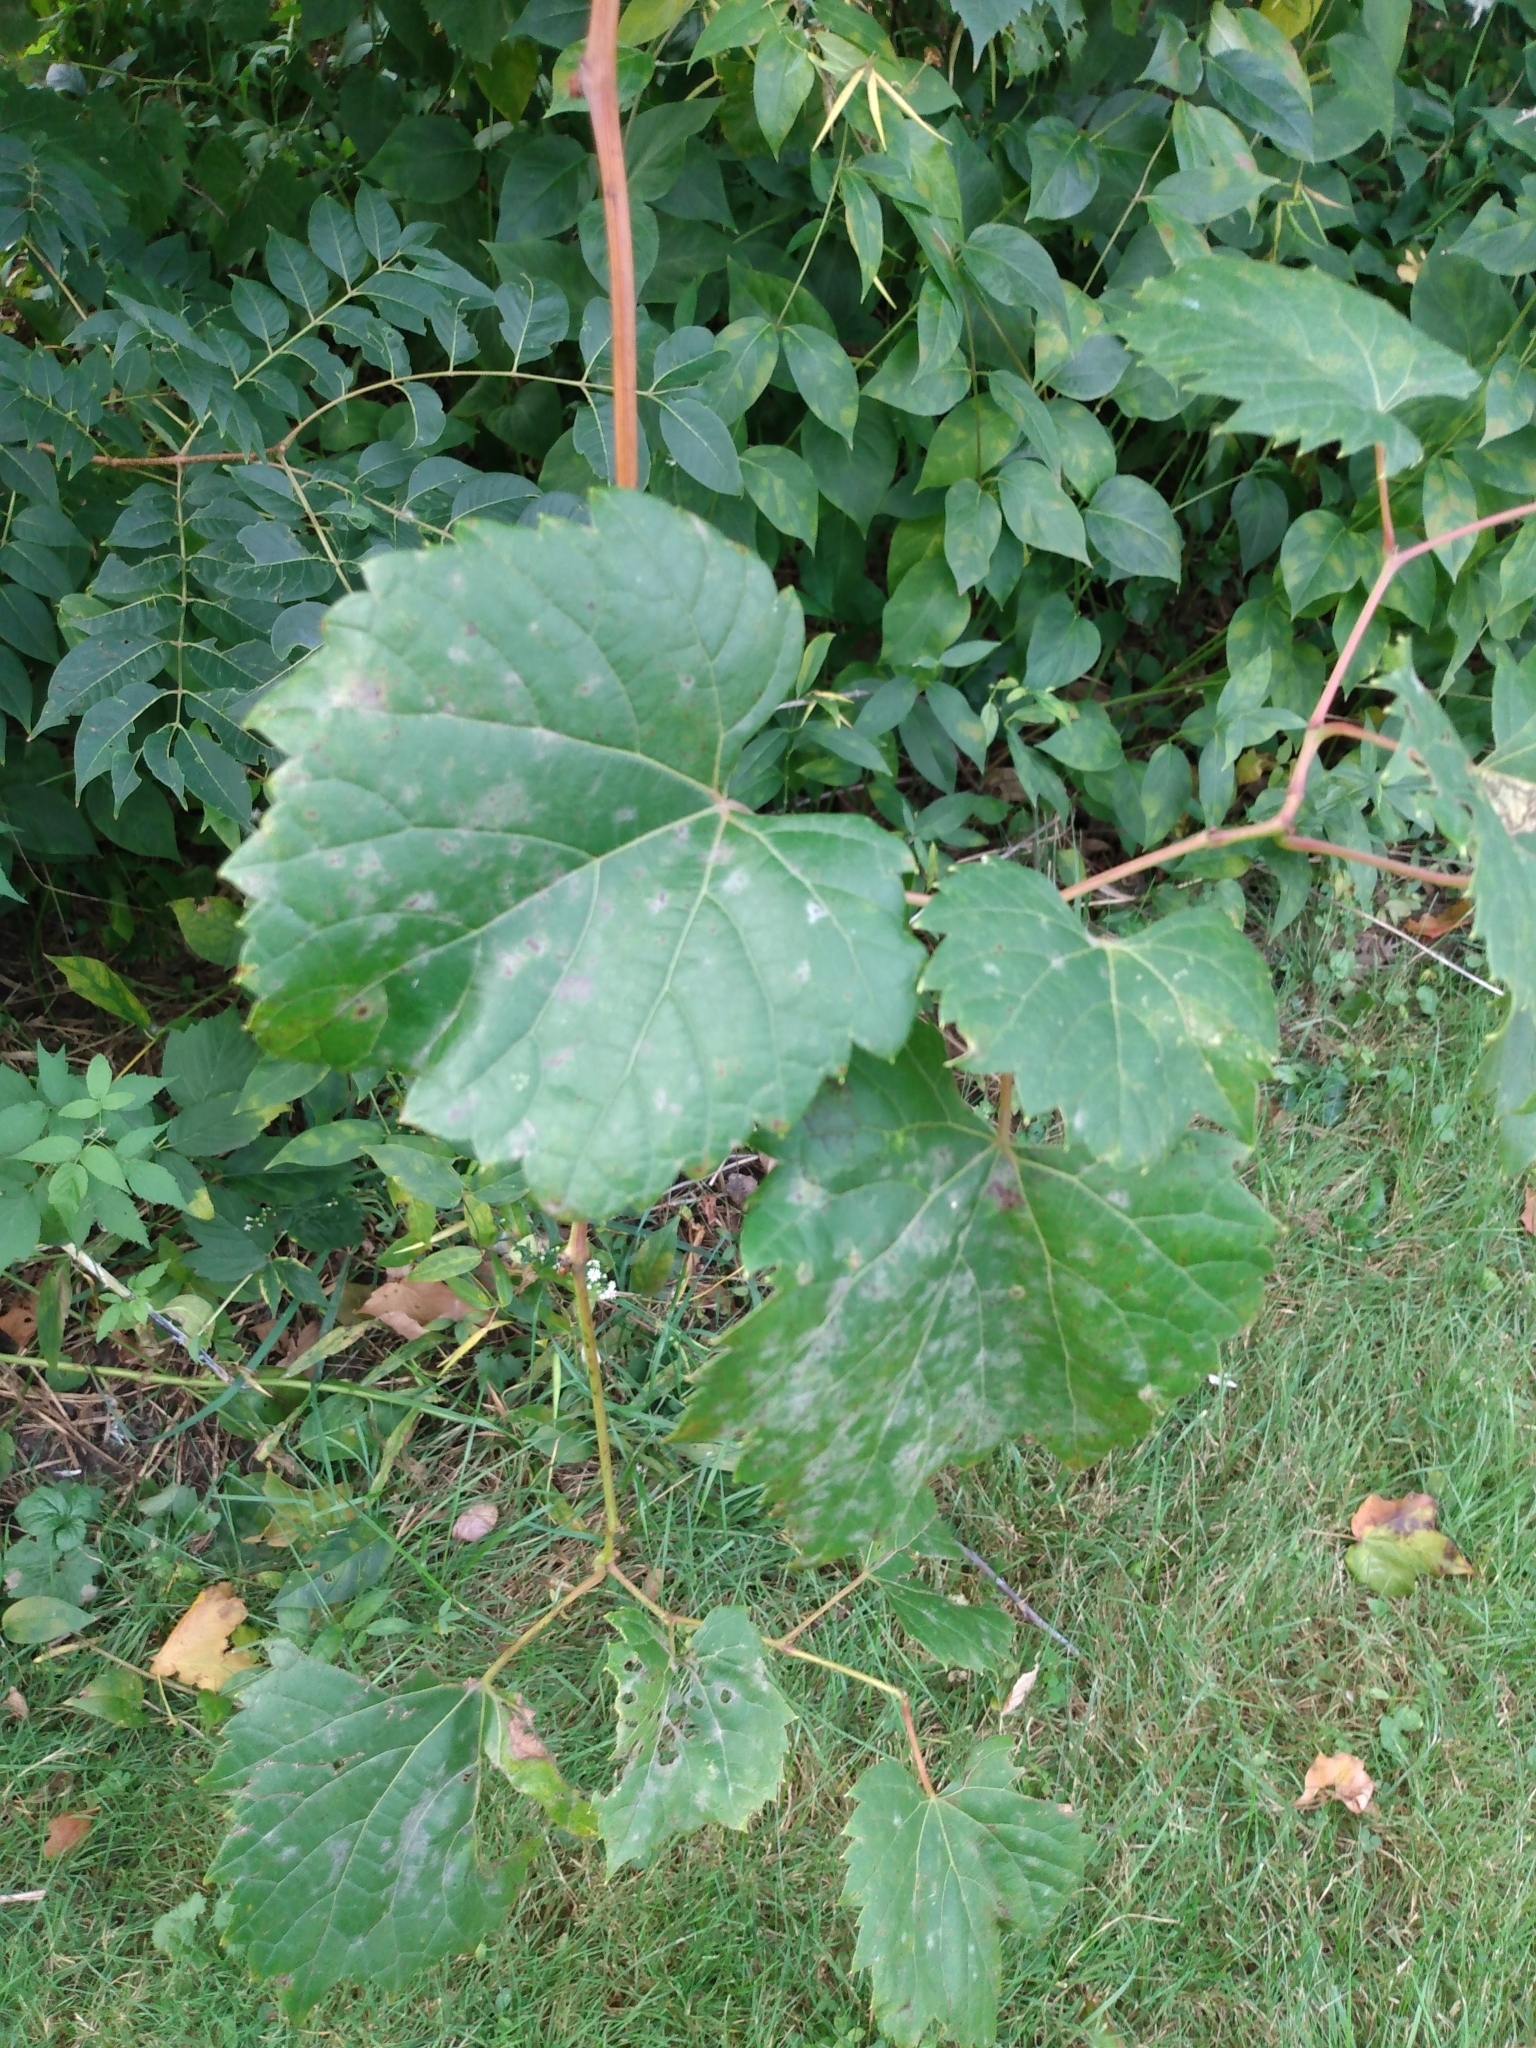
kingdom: Plantae
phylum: Tracheophyta
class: Magnoliopsida
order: Vitales
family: Vitaceae
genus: Vitis
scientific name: Vitis riparia
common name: Frost grape
